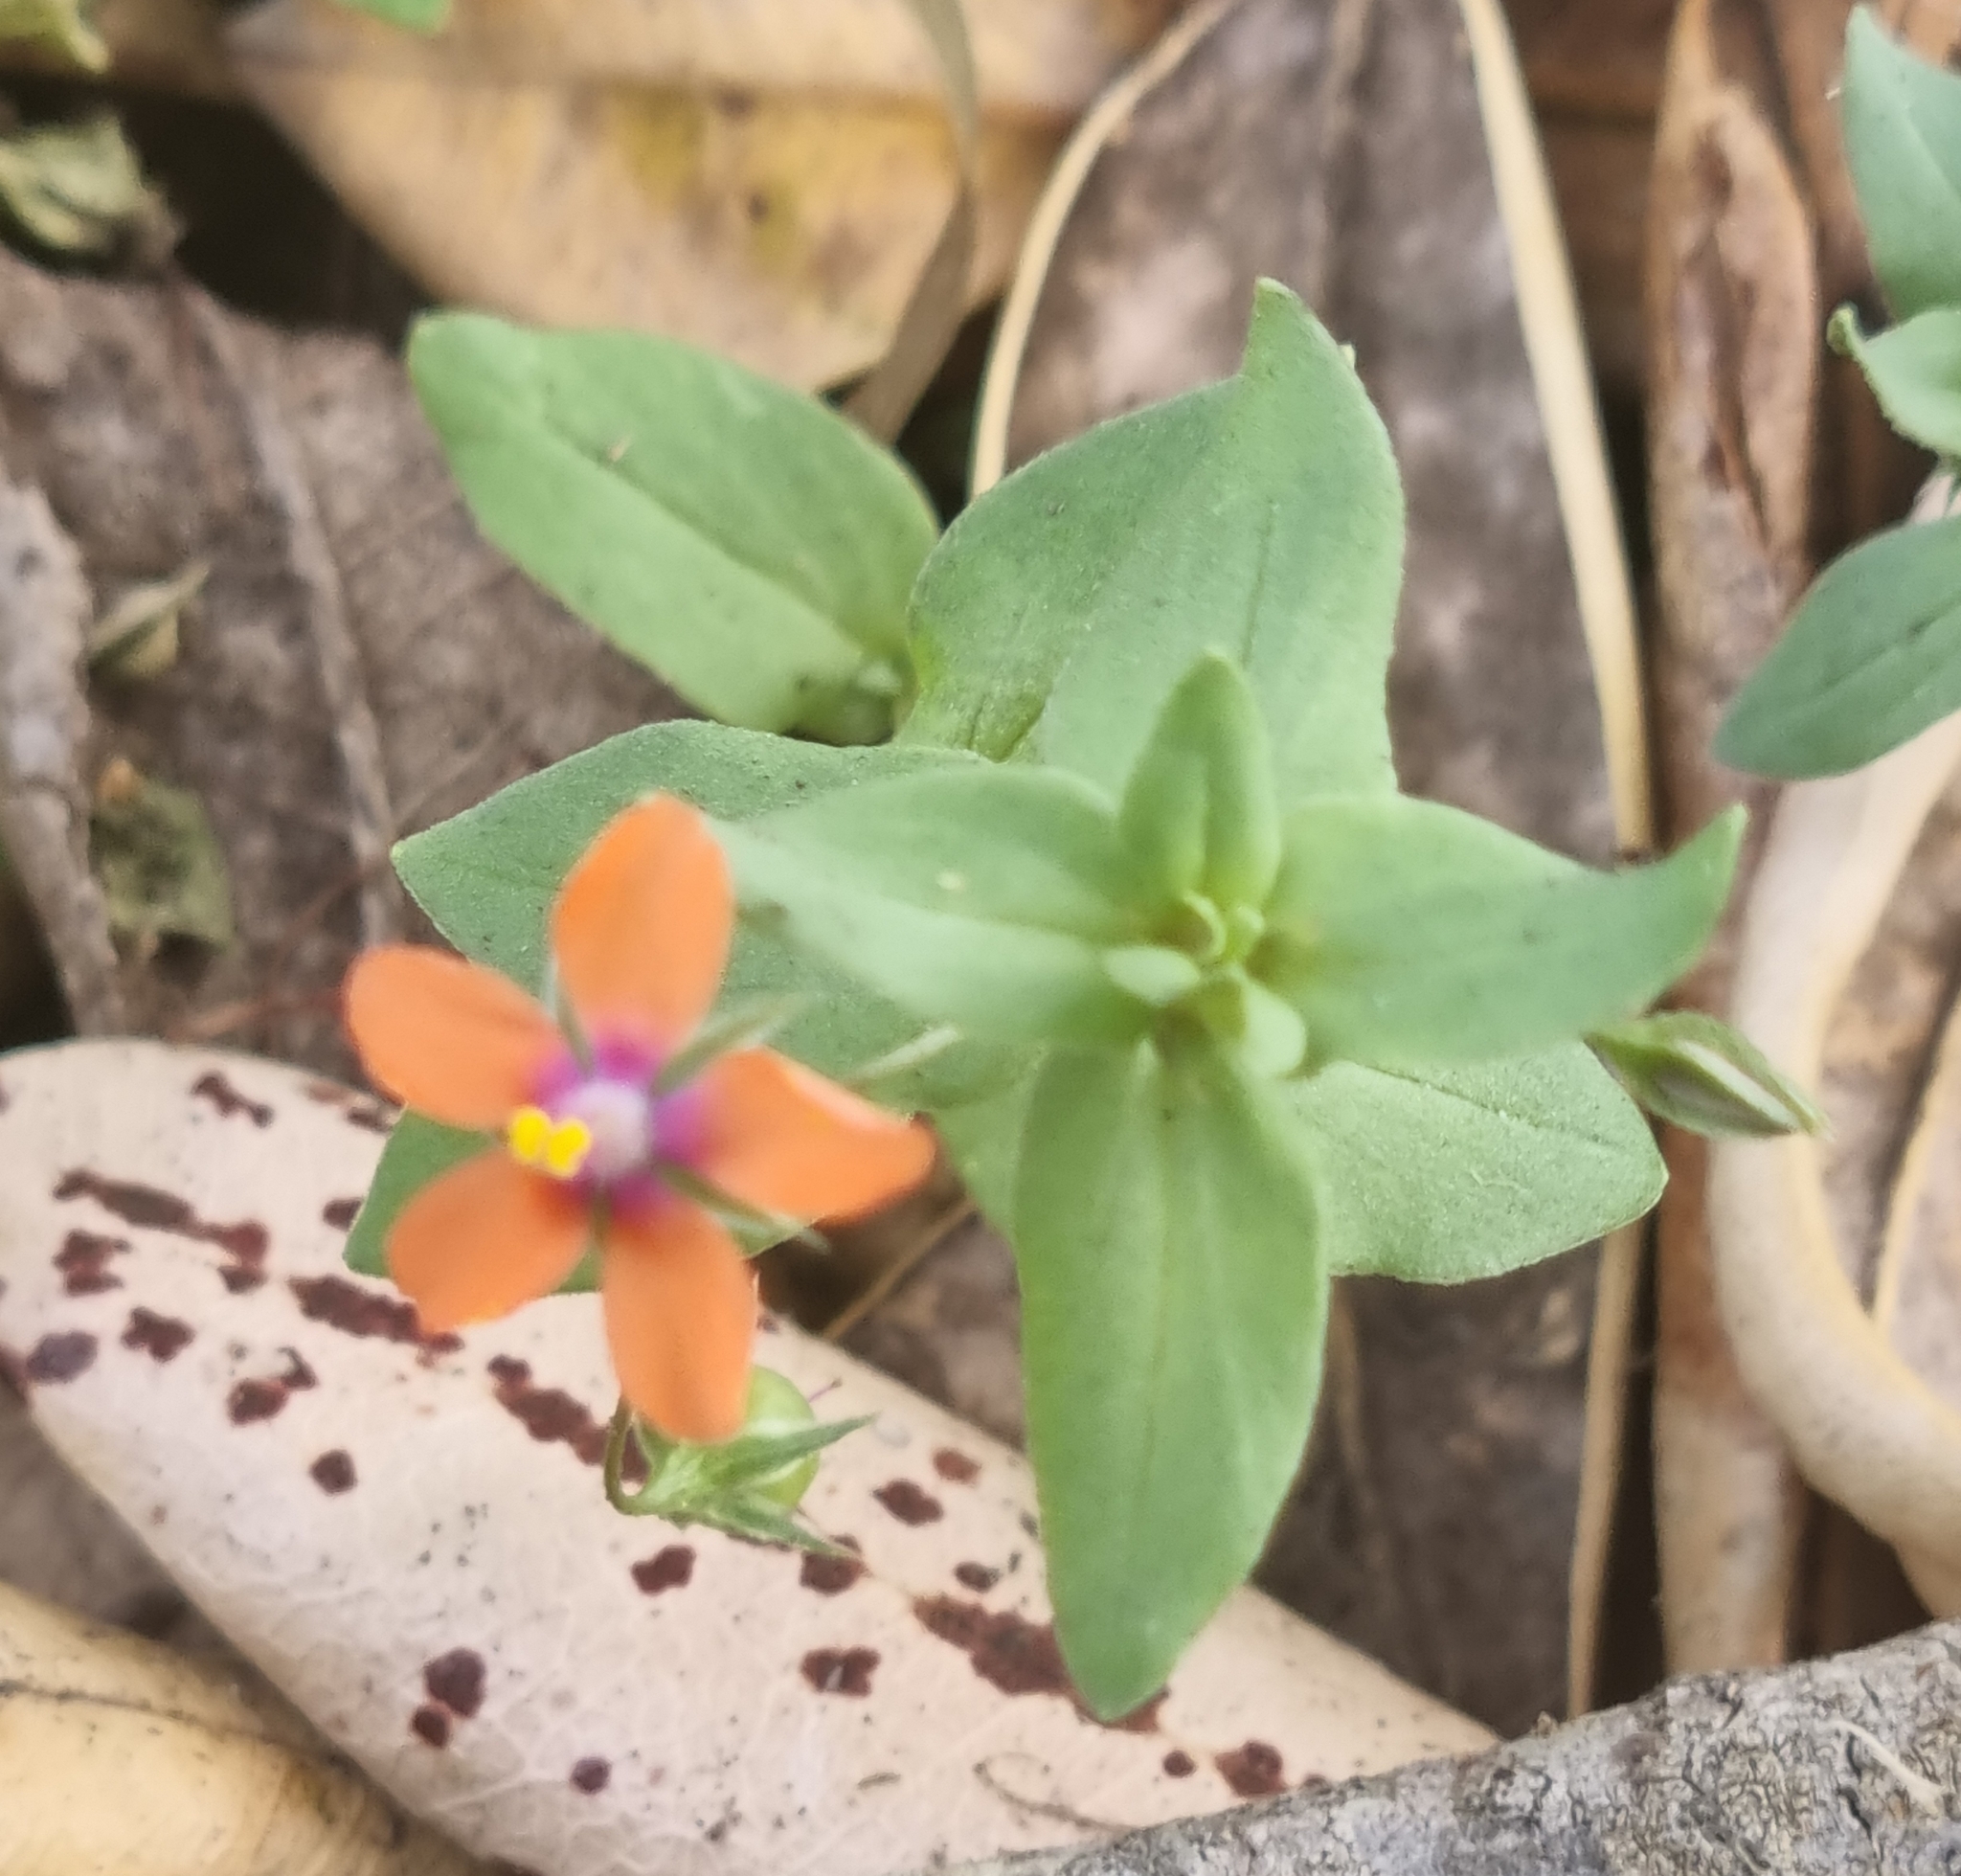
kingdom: Plantae
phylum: Tracheophyta
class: Magnoliopsida
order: Ericales
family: Primulaceae
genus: Lysimachia
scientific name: Lysimachia arvensis
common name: Scarlet pimpernel
